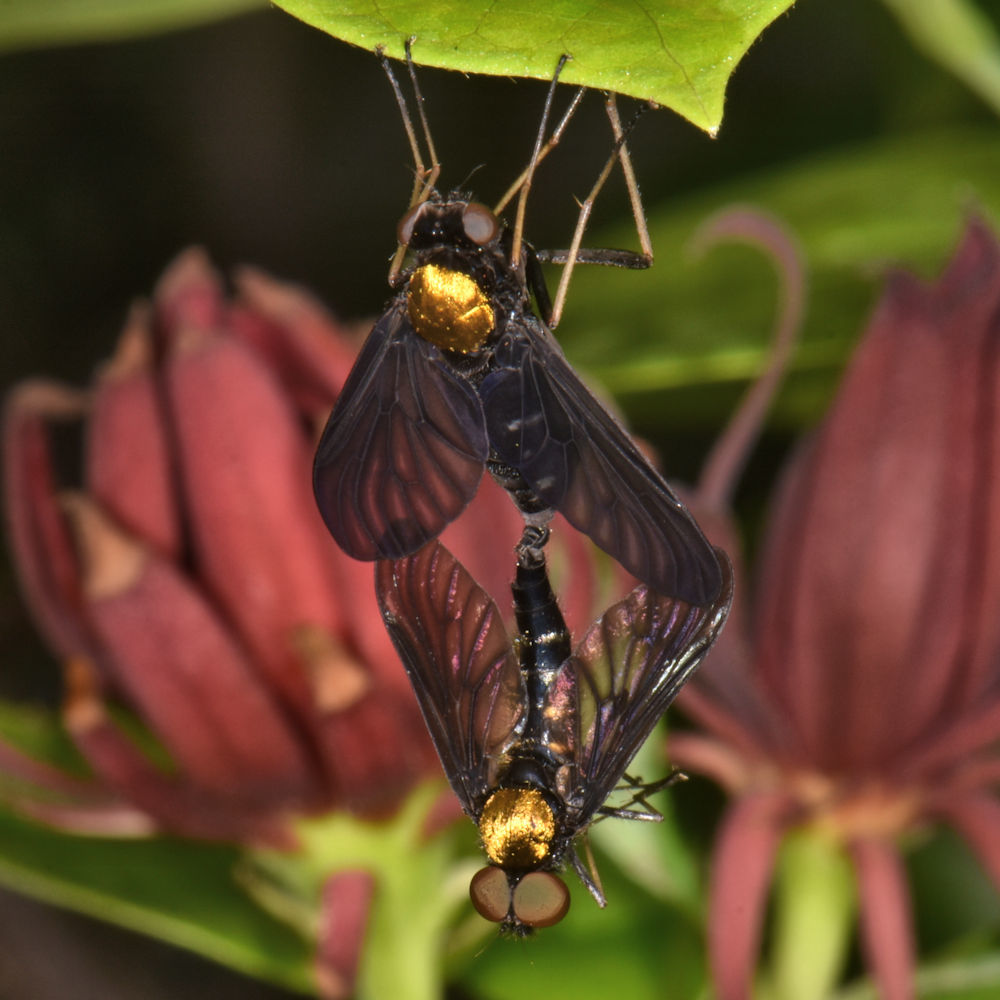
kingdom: Animalia
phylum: Arthropoda
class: Insecta
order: Diptera
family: Rhagionidae
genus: Chrysopilus
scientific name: Chrysopilus thoracicus
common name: Golden-backed snipe fly
